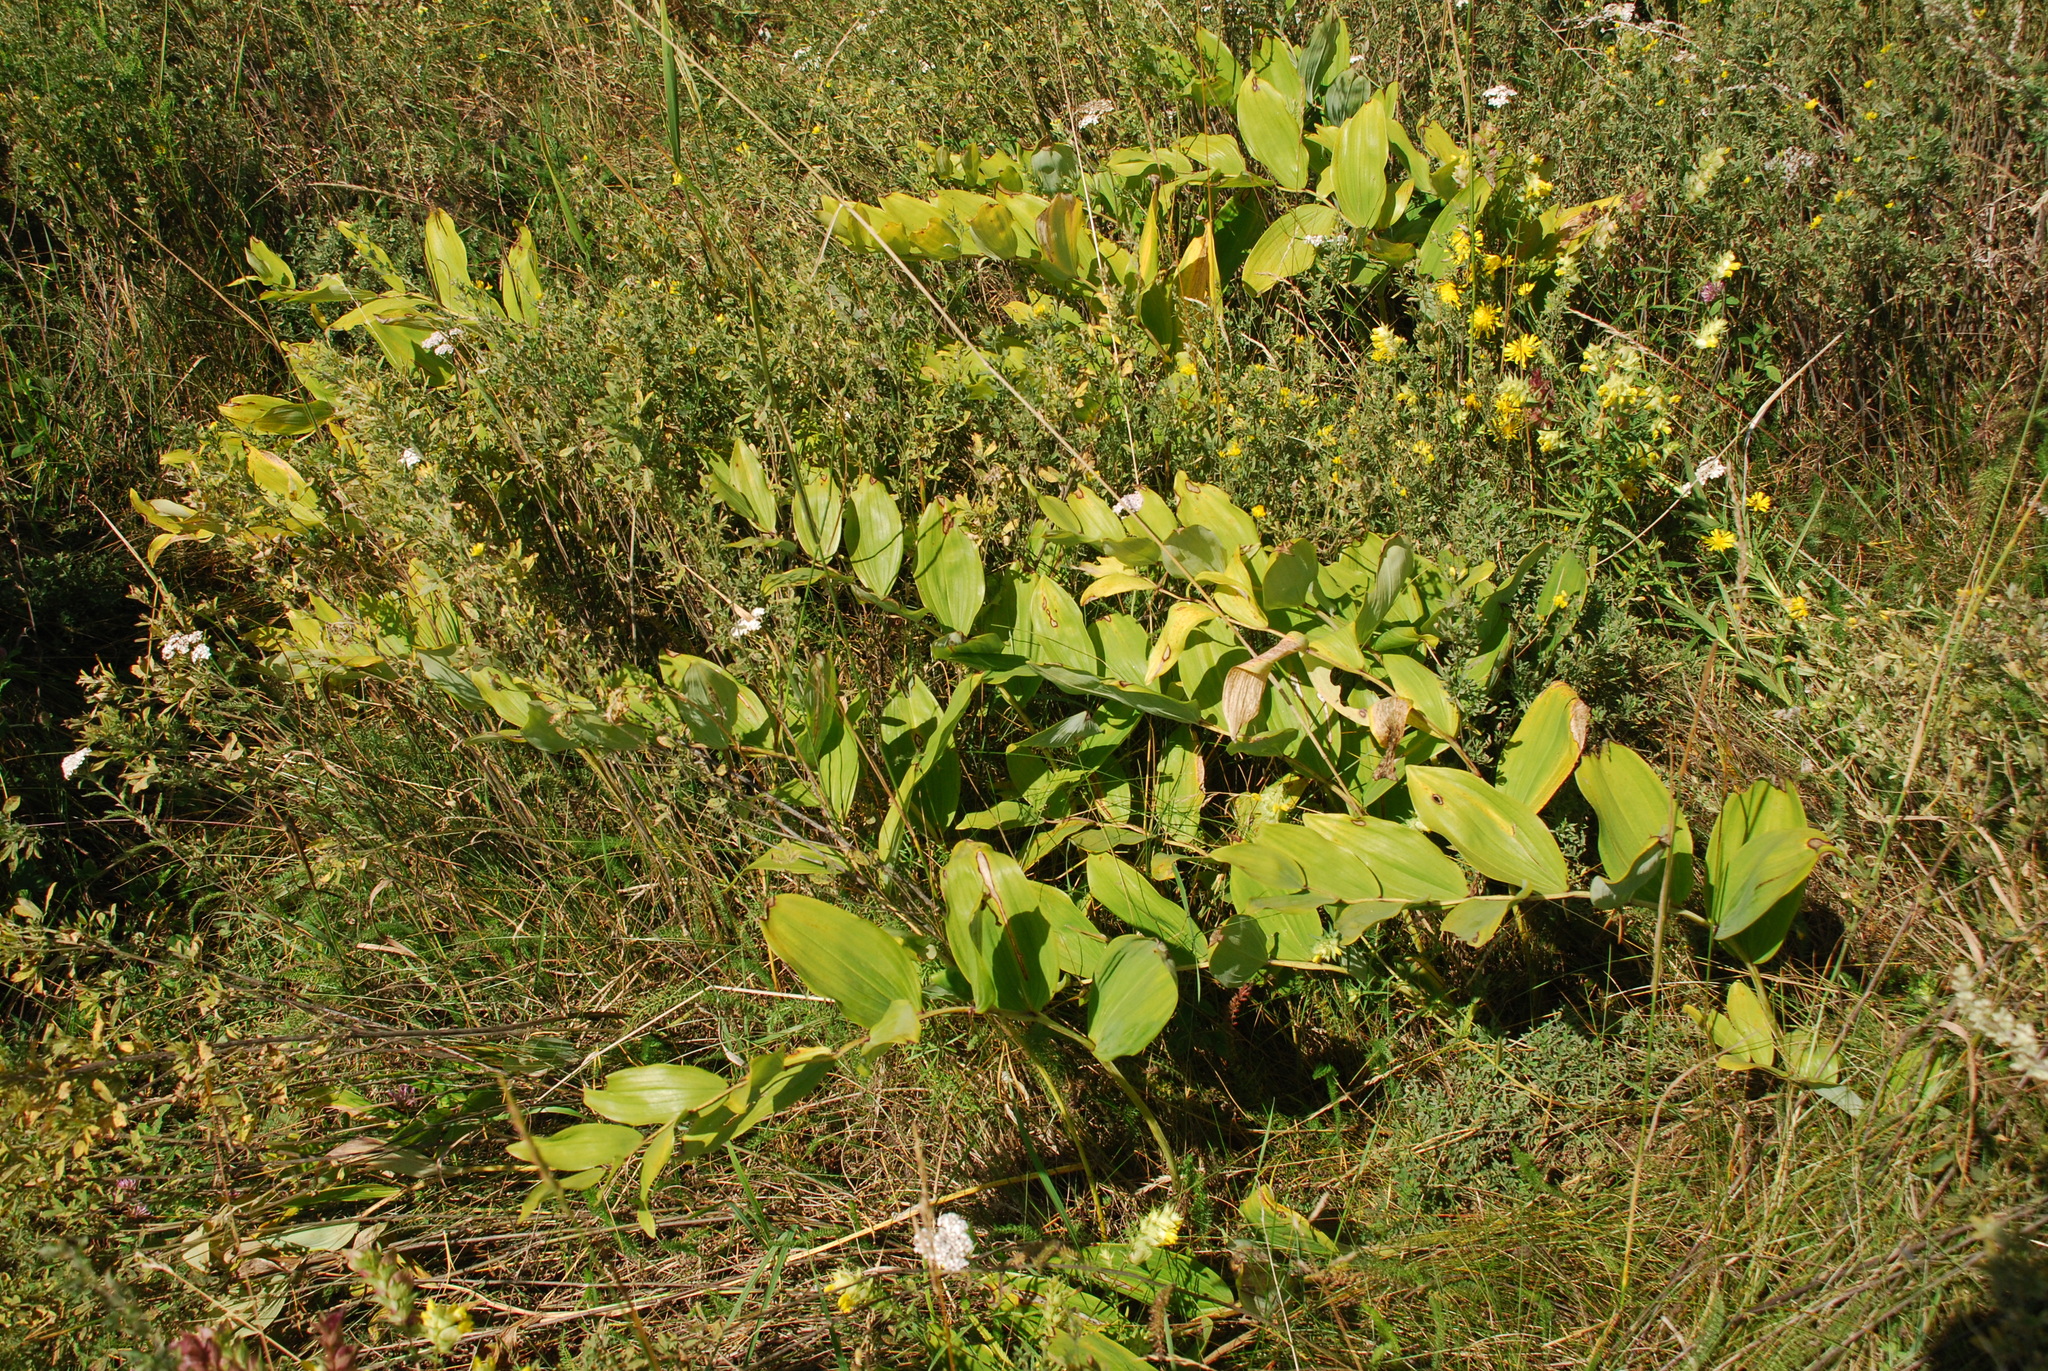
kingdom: Plantae
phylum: Tracheophyta
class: Liliopsida
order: Asparagales
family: Asparagaceae
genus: Polygonatum
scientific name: Polygonatum odoratum
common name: Angular solomon's-seal
